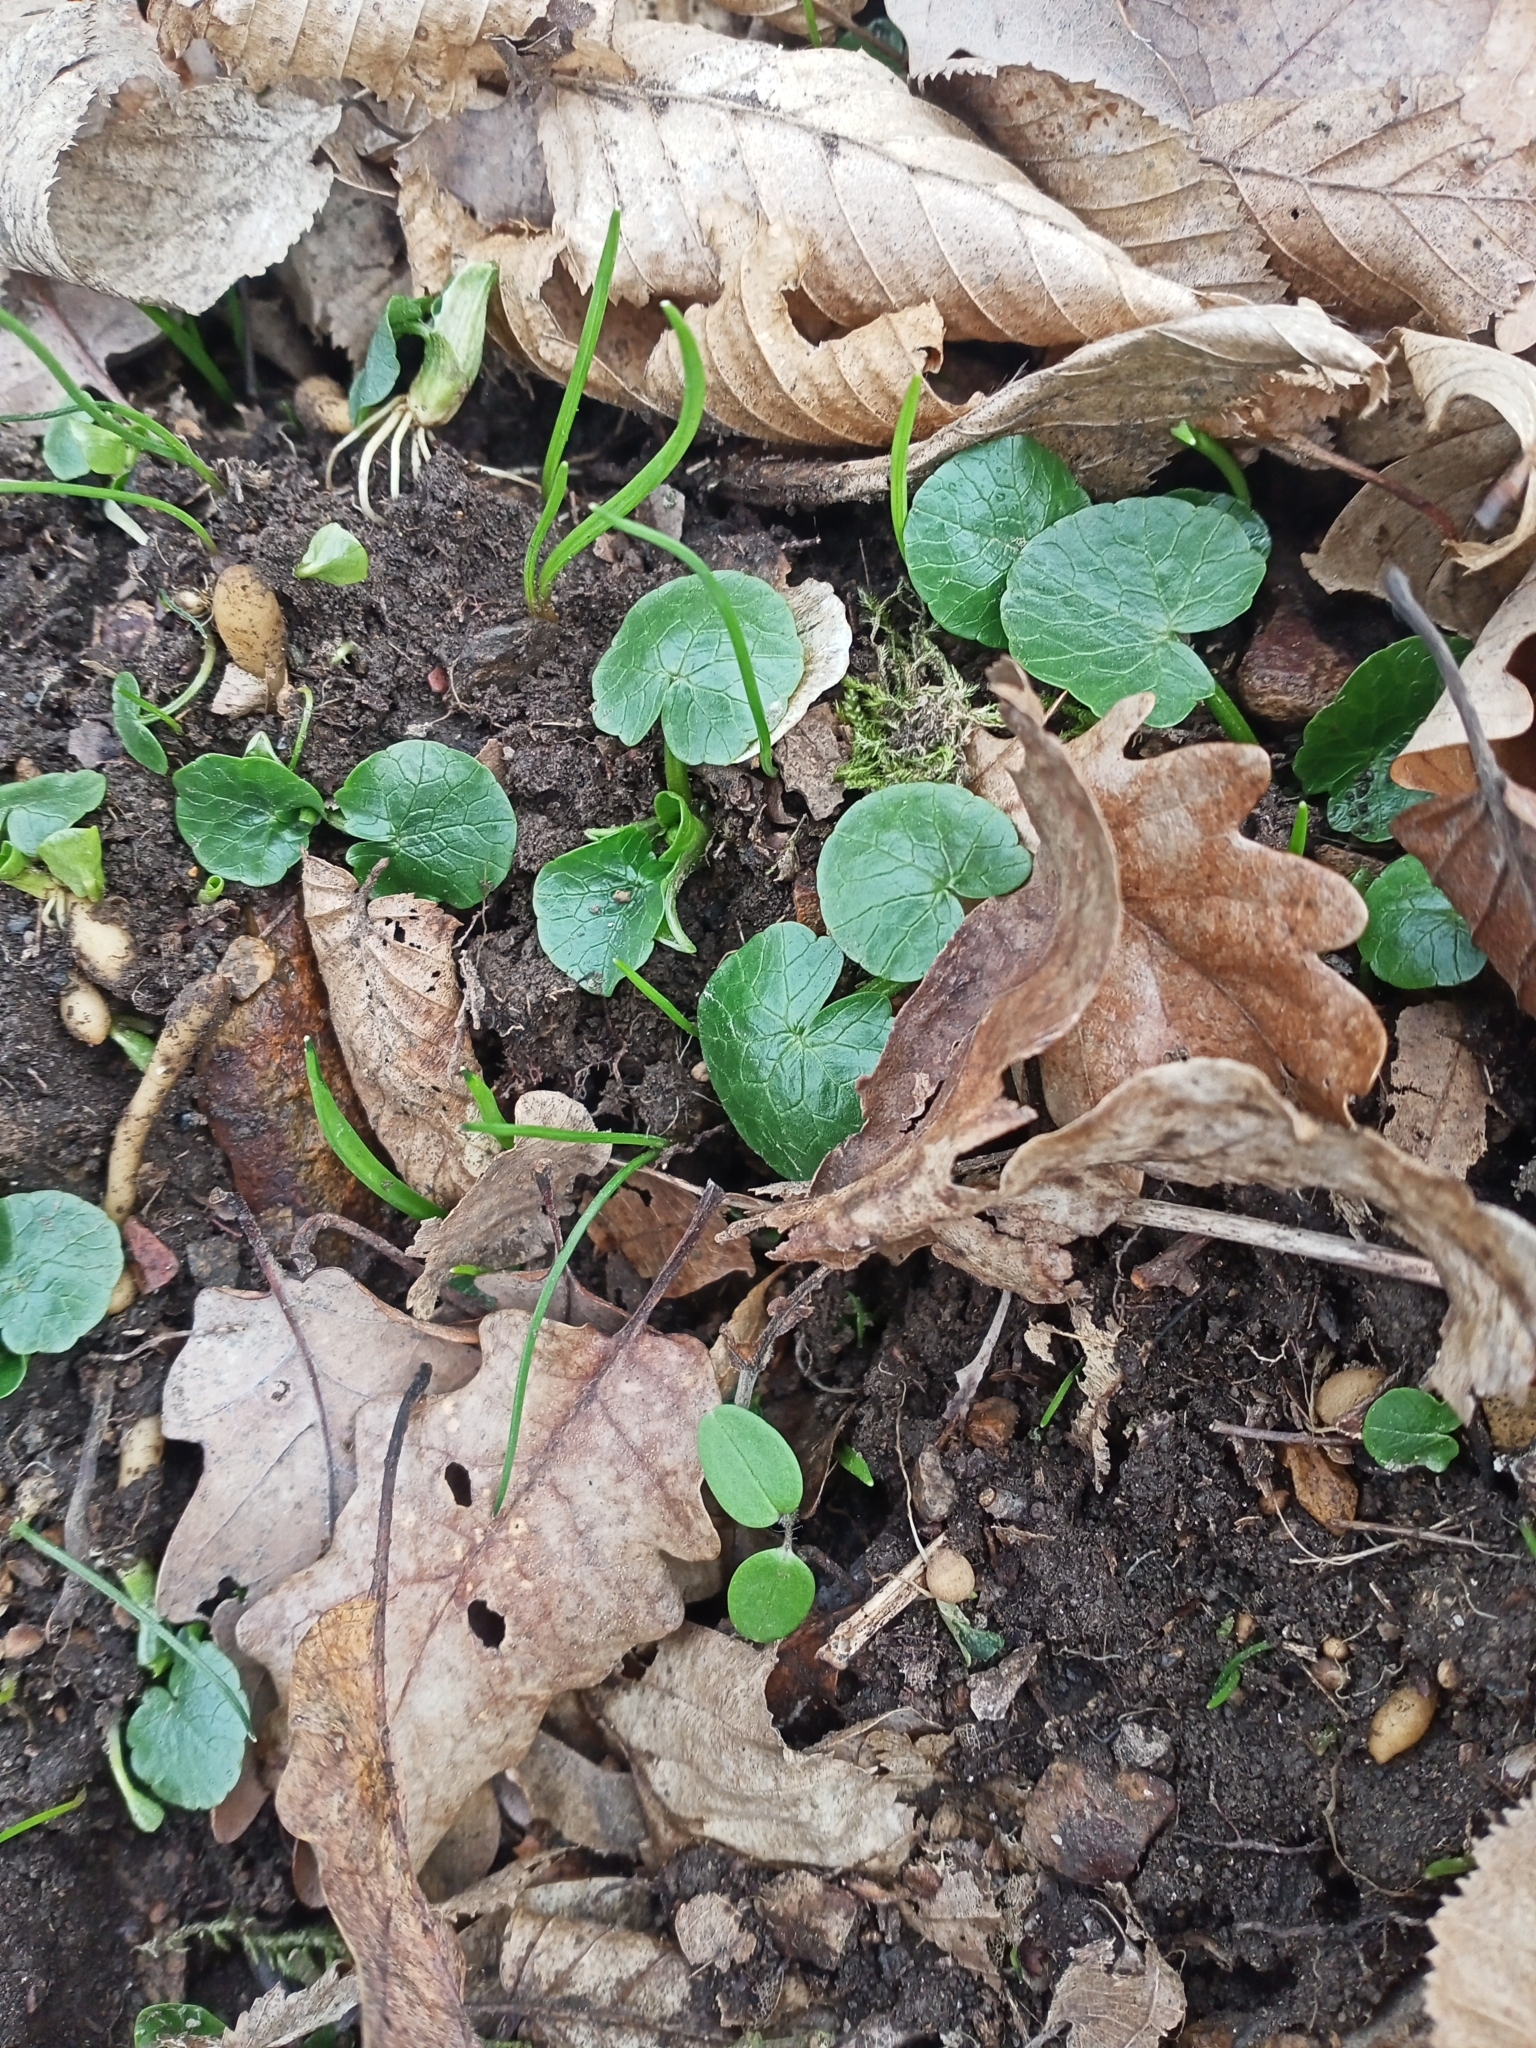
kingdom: Plantae
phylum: Tracheophyta
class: Magnoliopsida
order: Ranunculales
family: Ranunculaceae
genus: Ficaria
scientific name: Ficaria verna
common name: Lesser celandine
